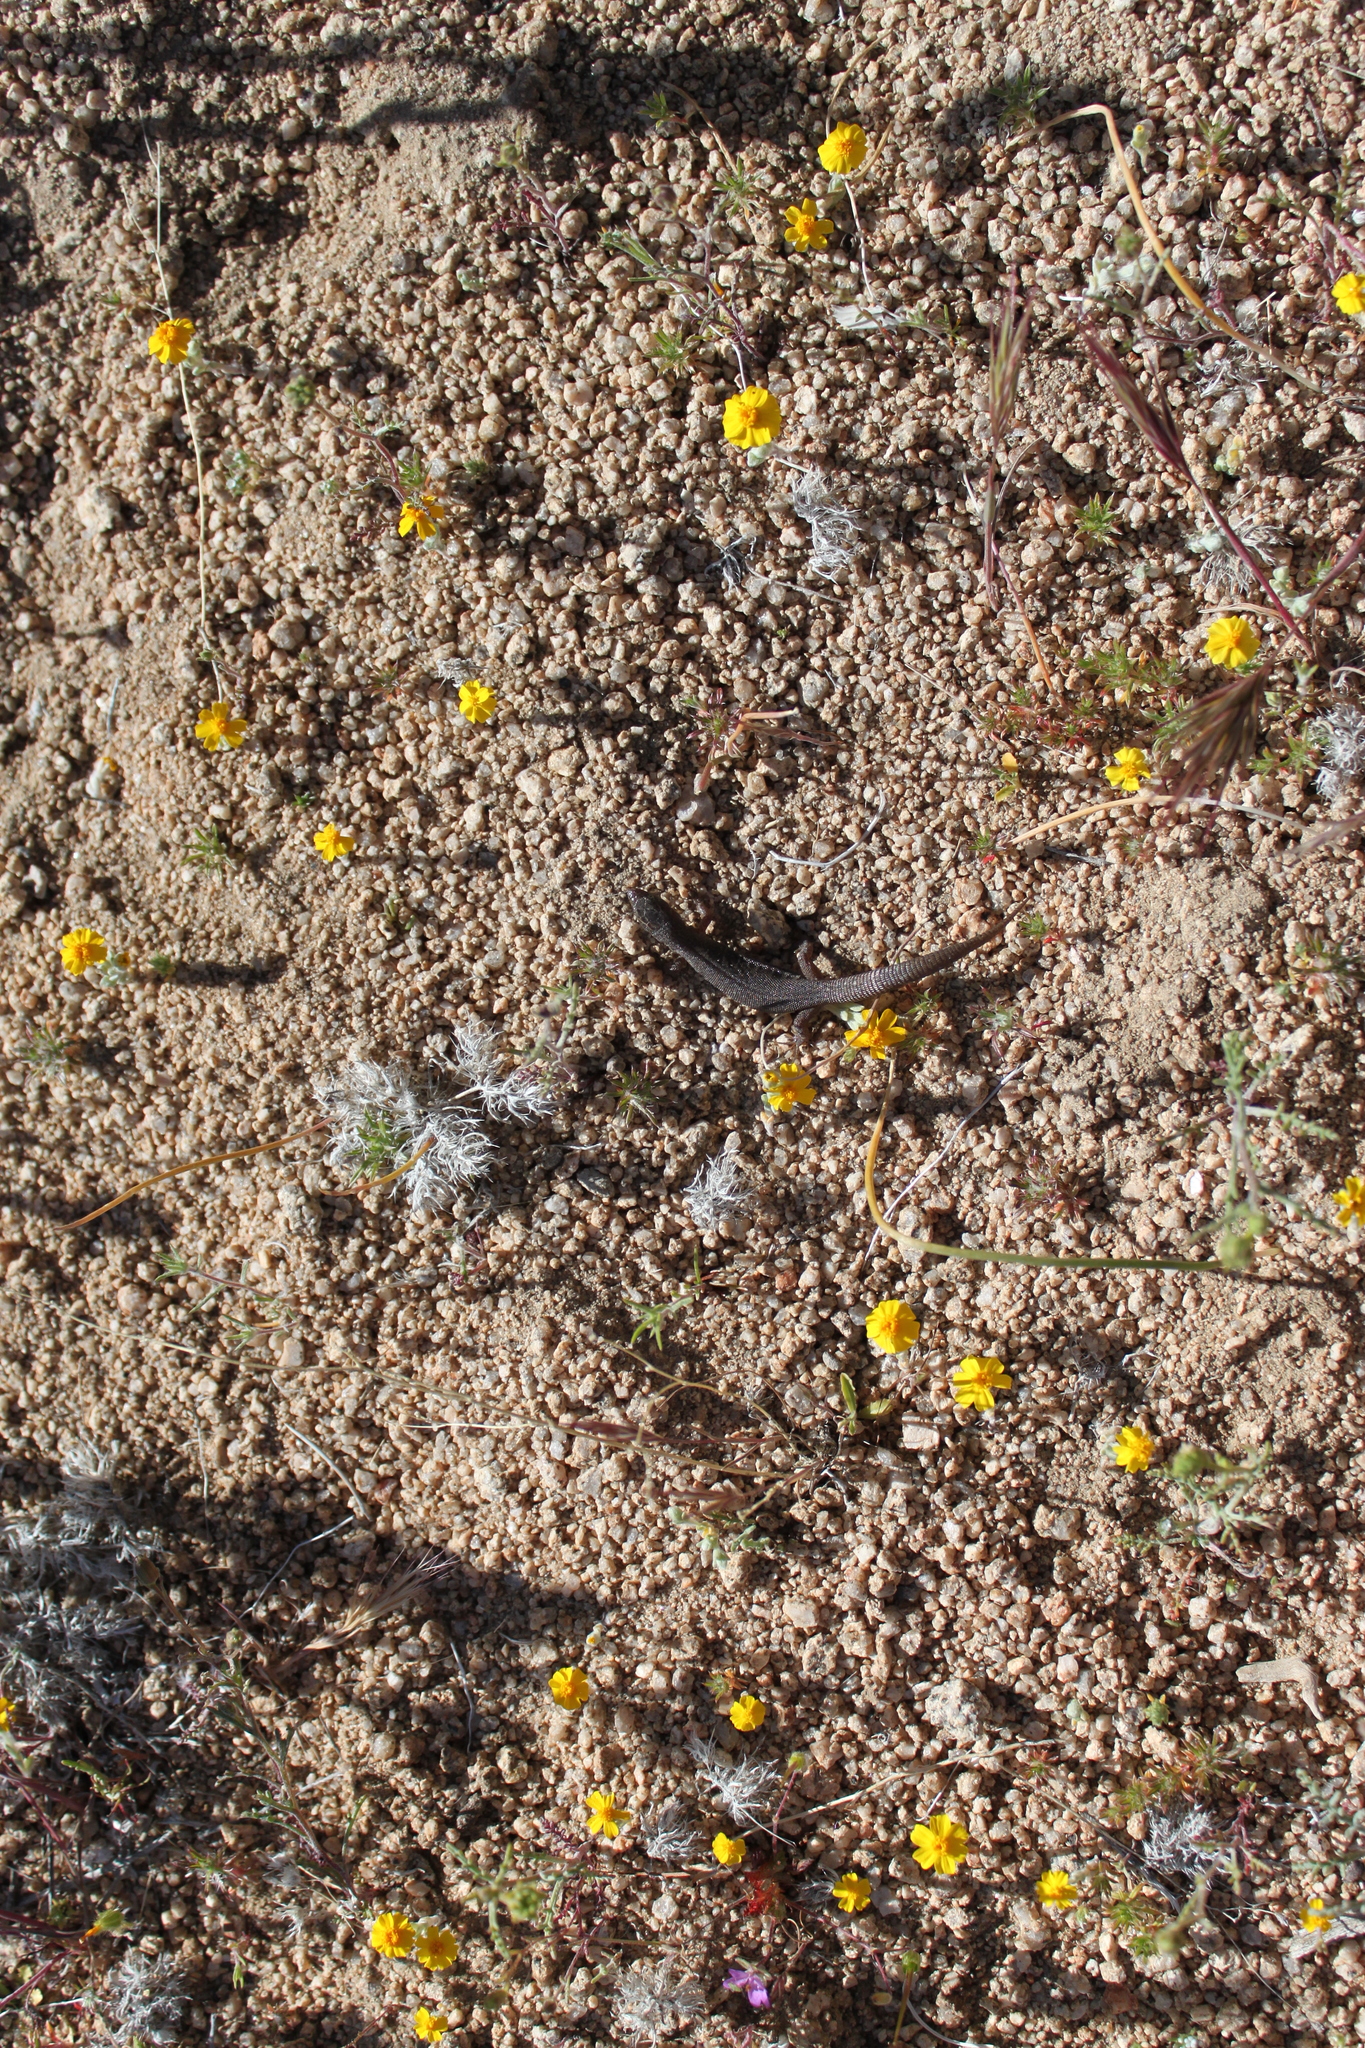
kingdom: Animalia
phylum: Chordata
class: Squamata
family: Xantusiidae
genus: Xantusia
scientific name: Xantusia vigilis
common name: Desert night lizard
